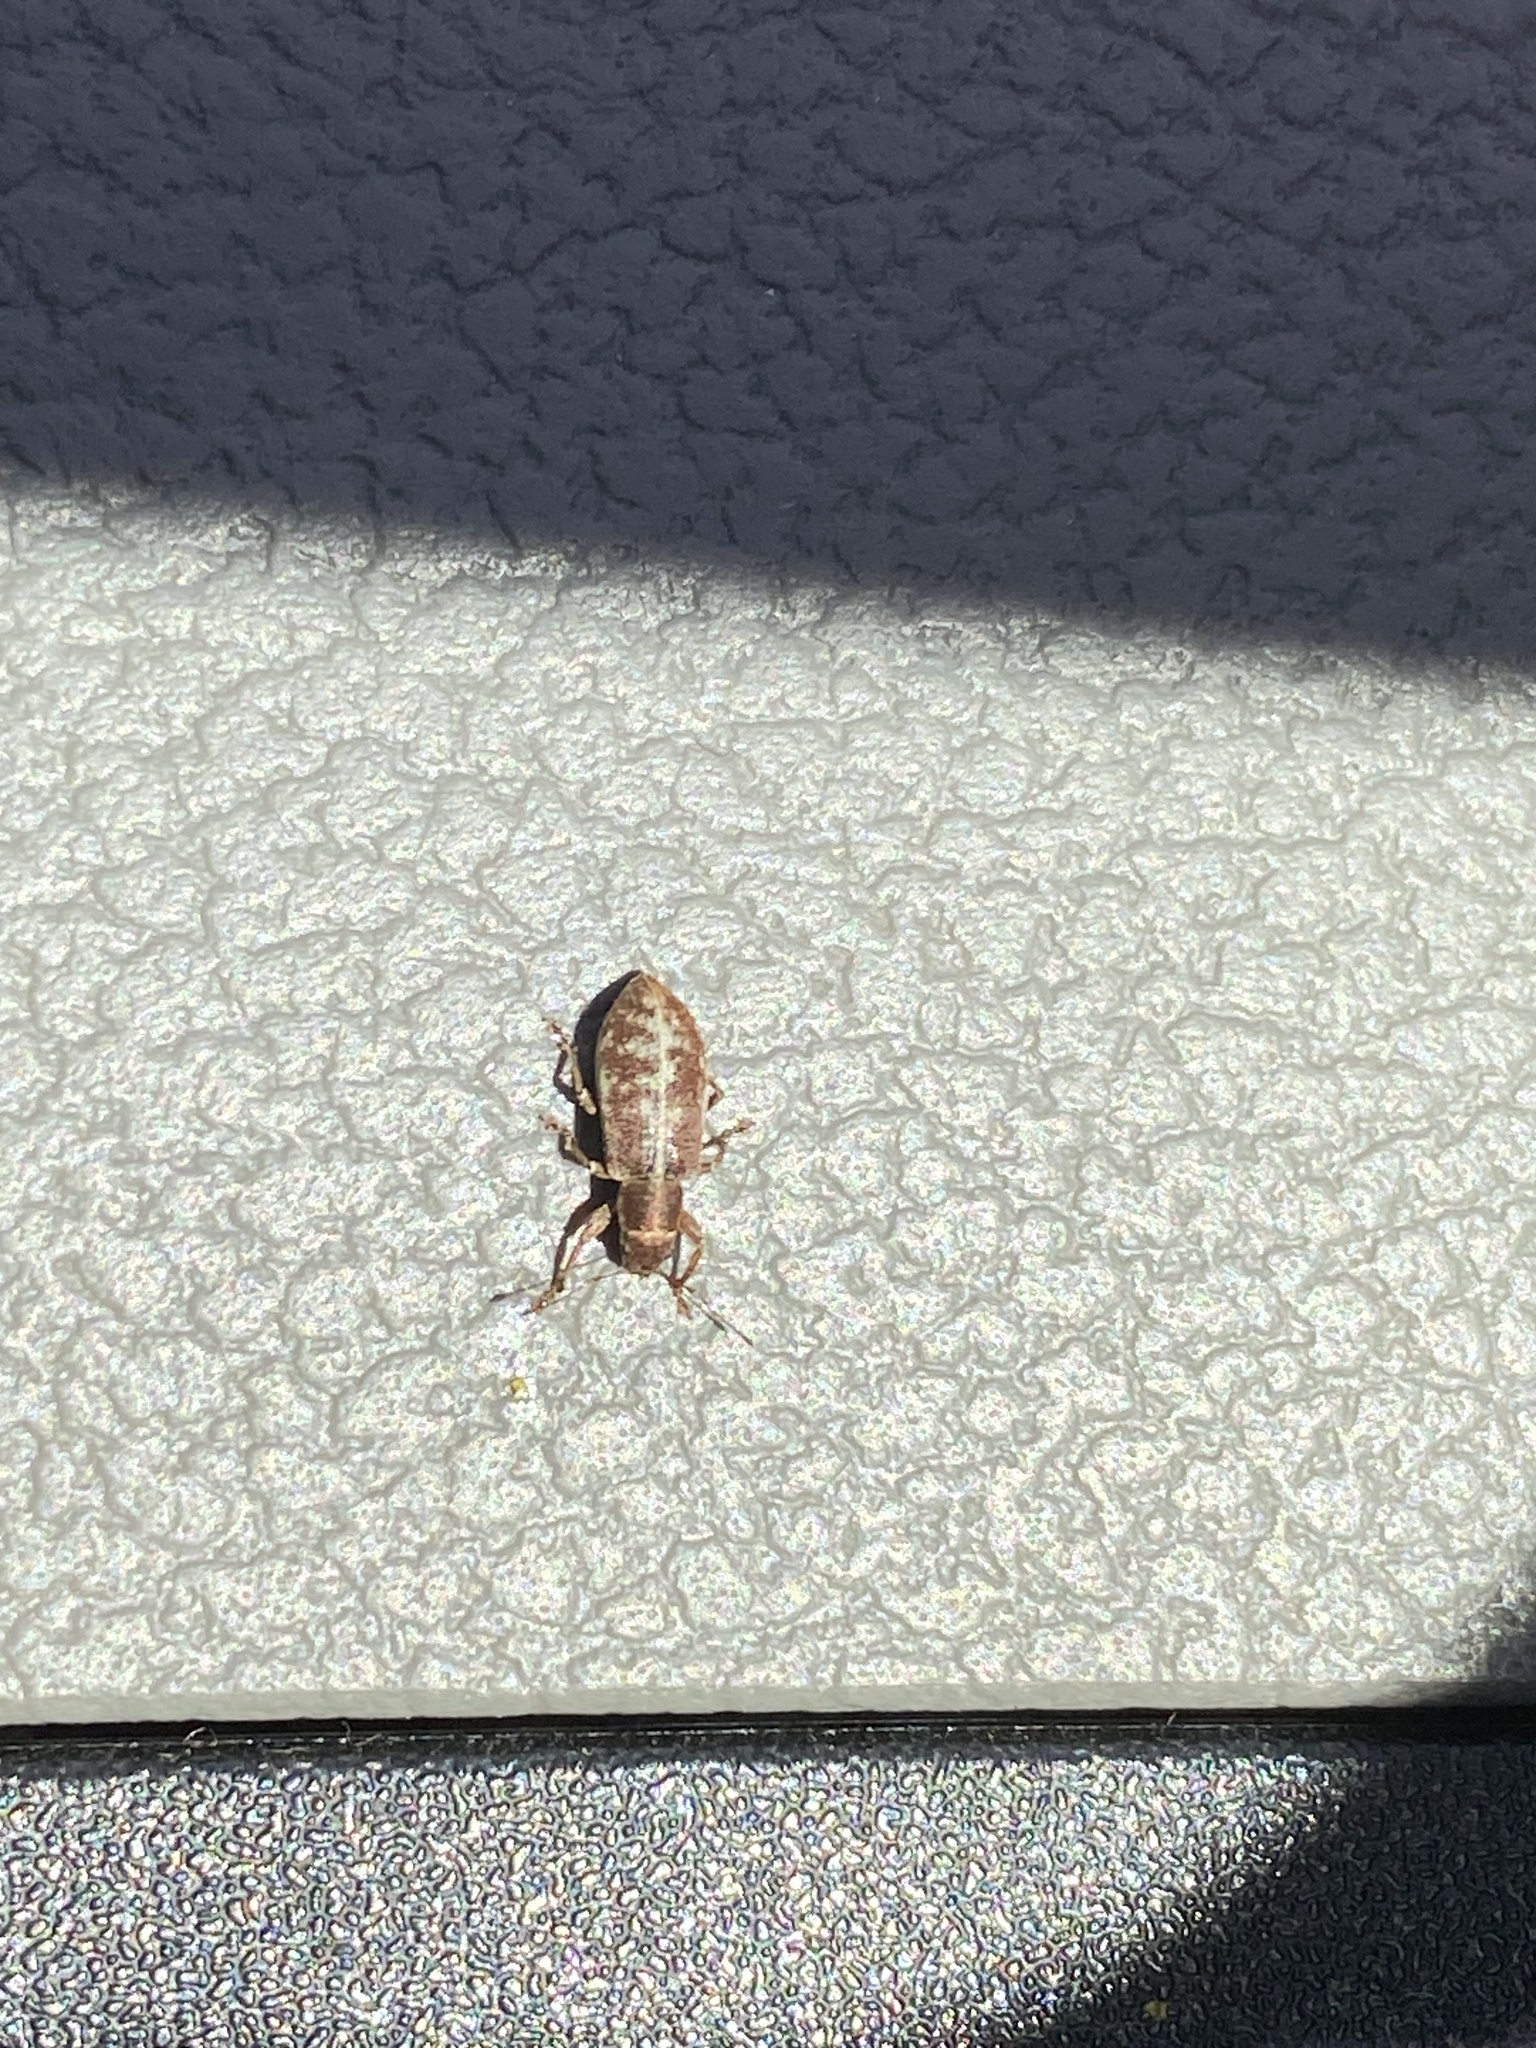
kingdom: Animalia
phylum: Arthropoda
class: Insecta
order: Coleoptera
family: Curculionidae
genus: Pachyrhinus
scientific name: Pachyrhinus cinereus
